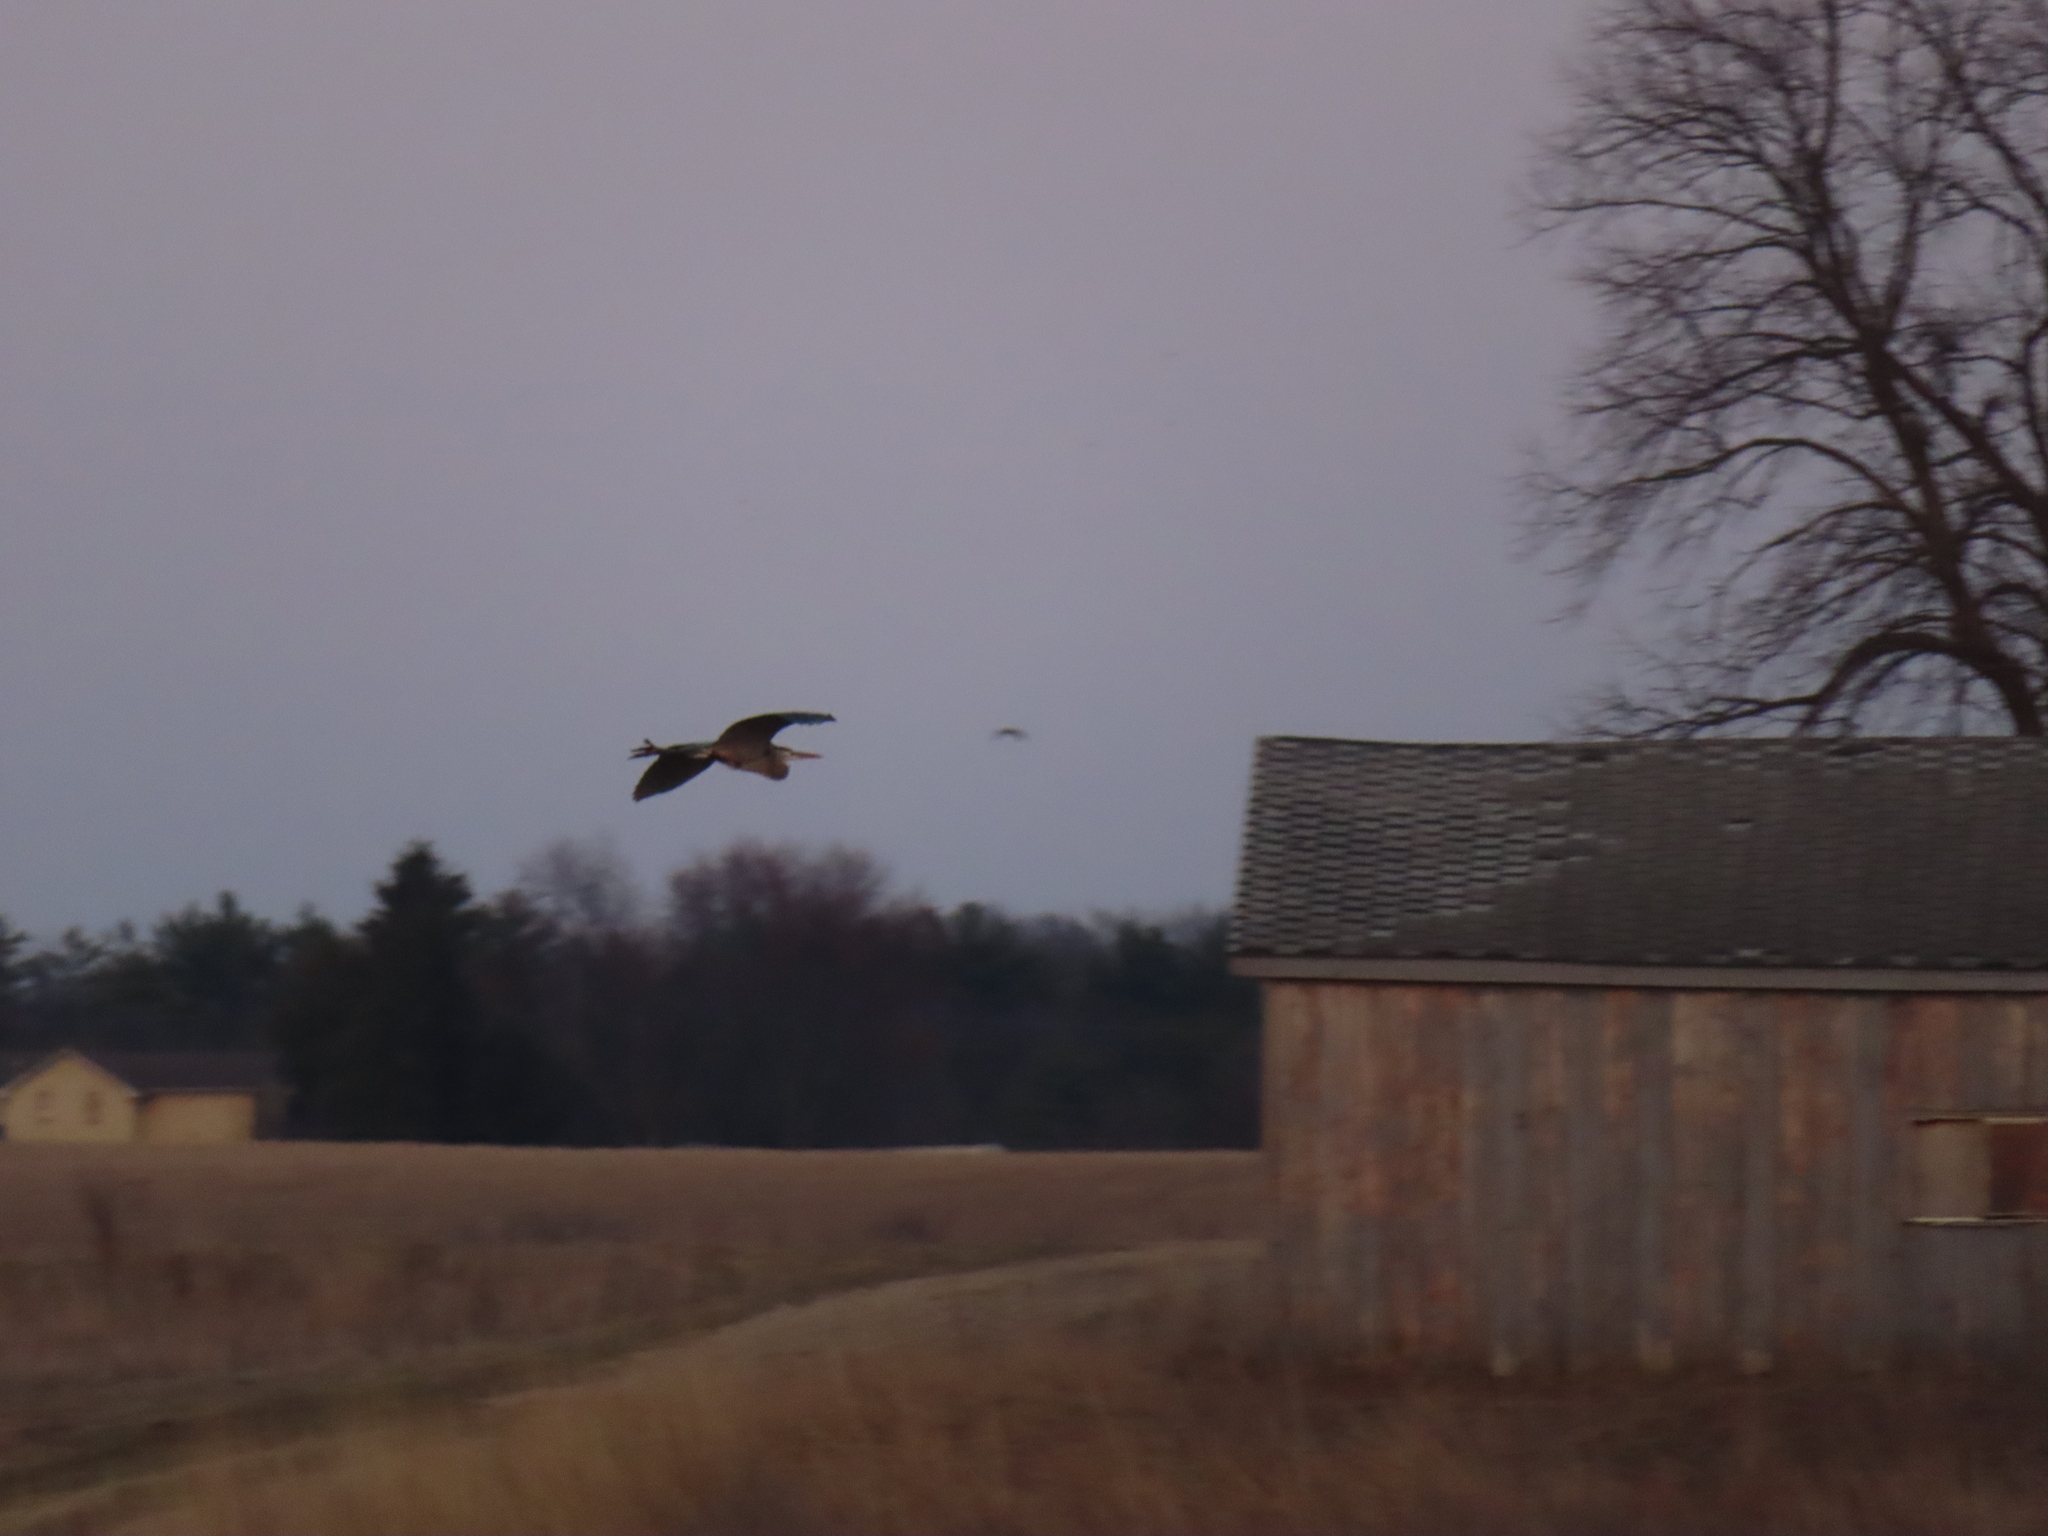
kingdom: Animalia
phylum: Chordata
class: Aves
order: Pelecaniformes
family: Ardeidae
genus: Ardea
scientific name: Ardea herodias
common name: Great blue heron
